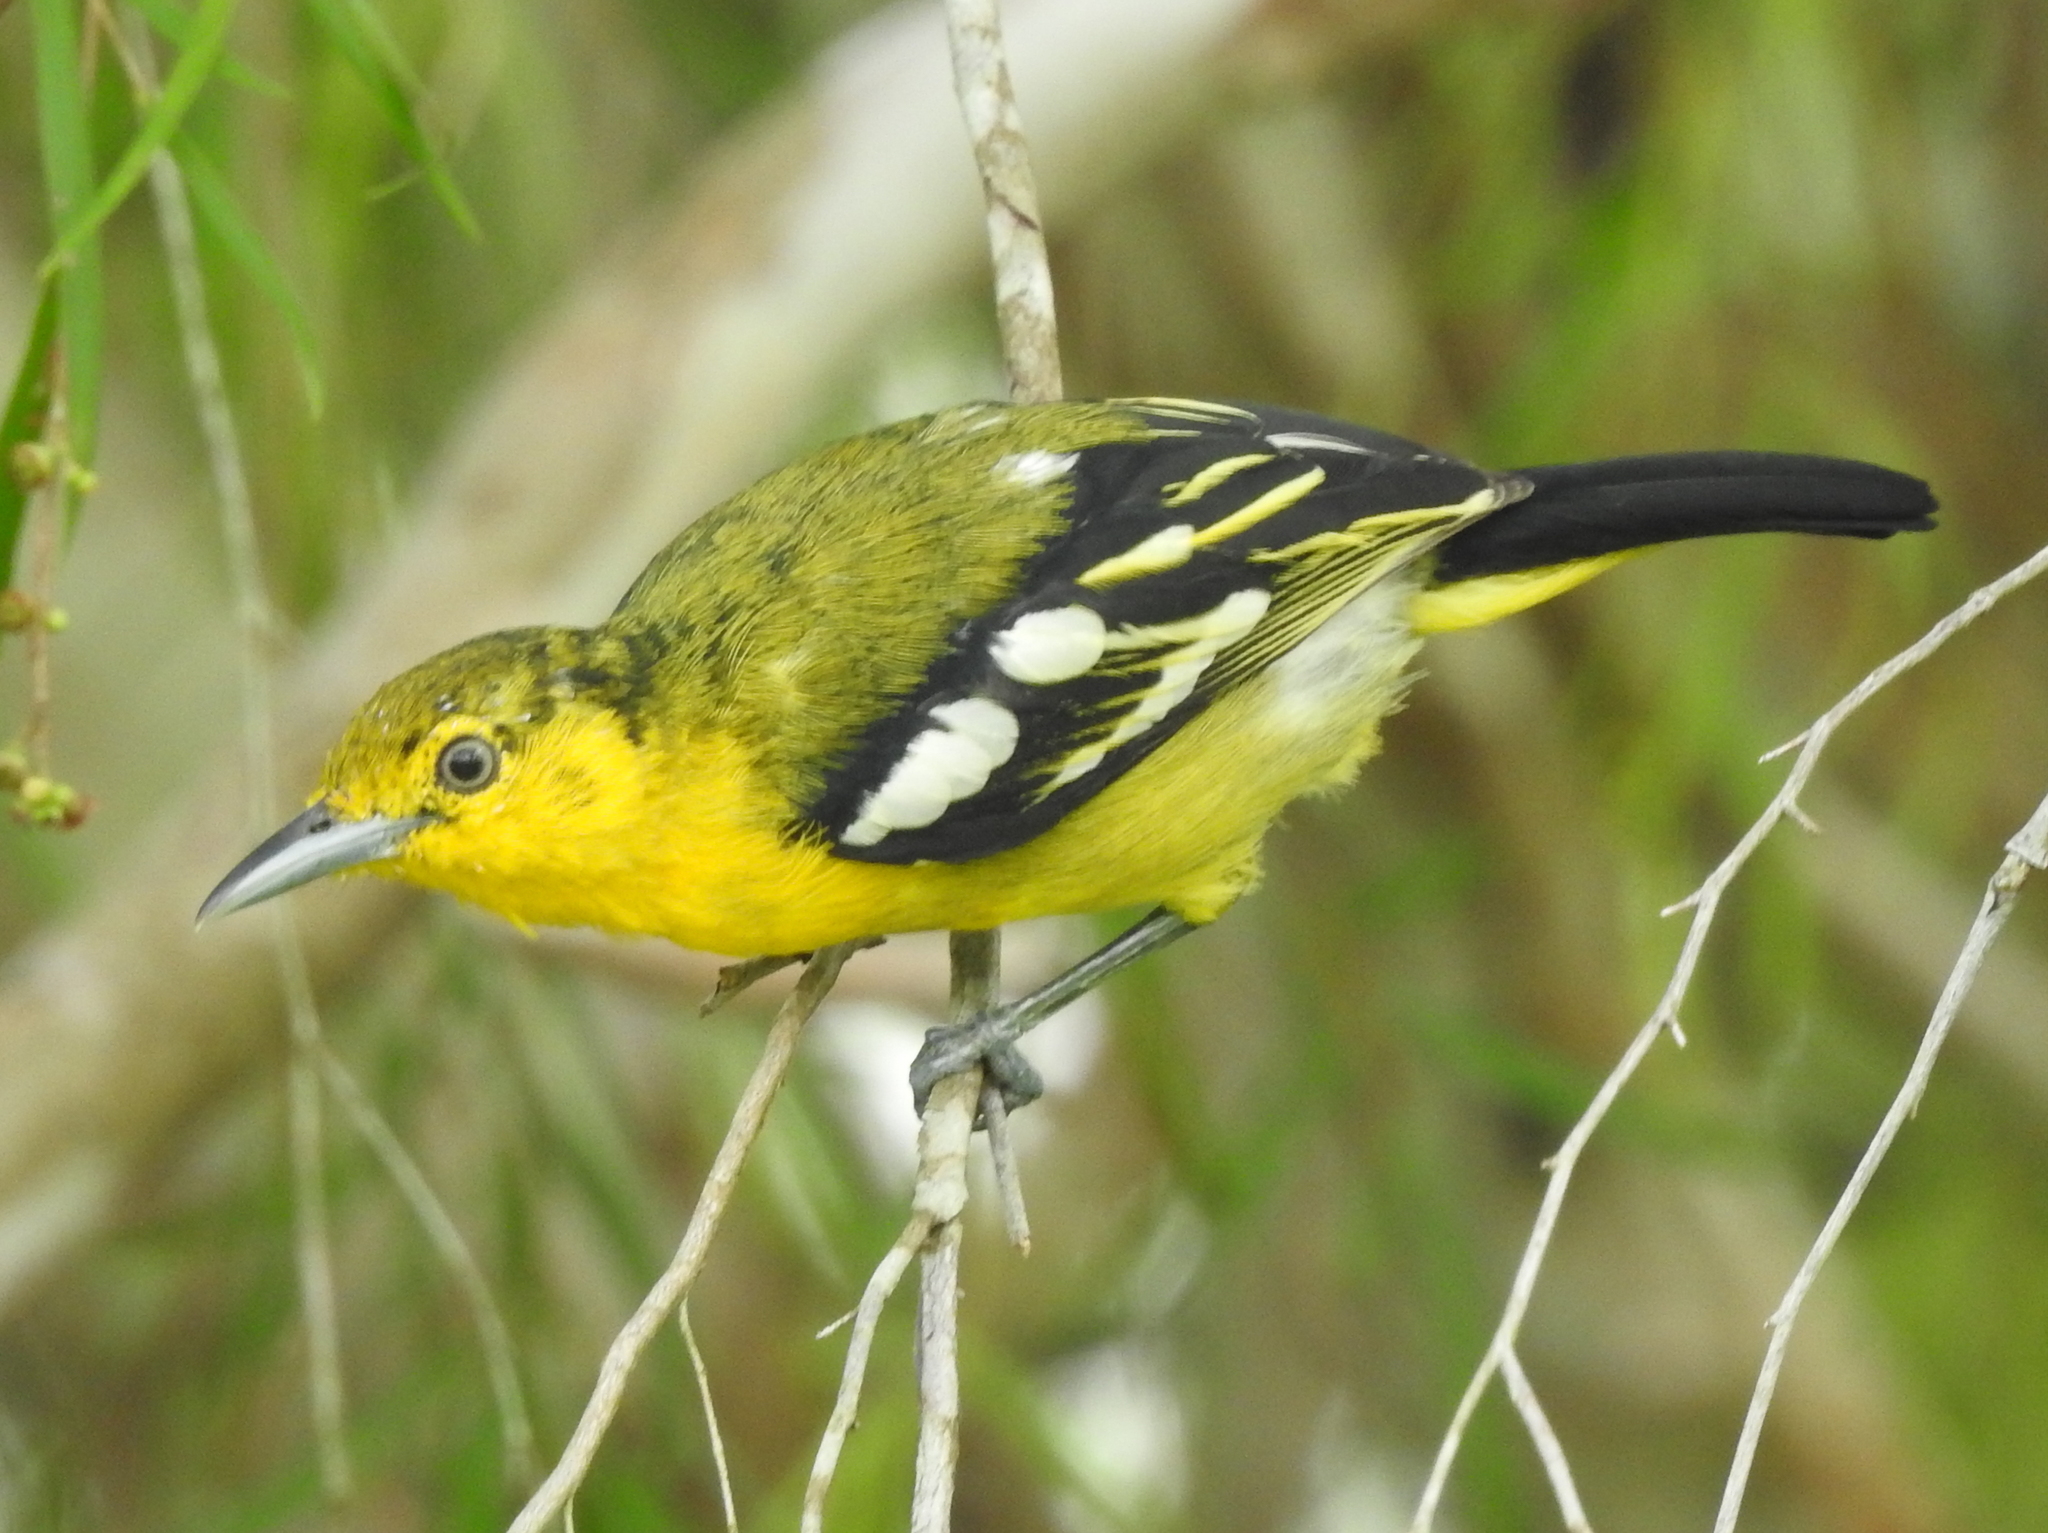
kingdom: Animalia
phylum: Chordata
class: Aves
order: Passeriformes
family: Aegithinidae
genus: Aegithina
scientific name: Aegithina tiphia
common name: Common iora
